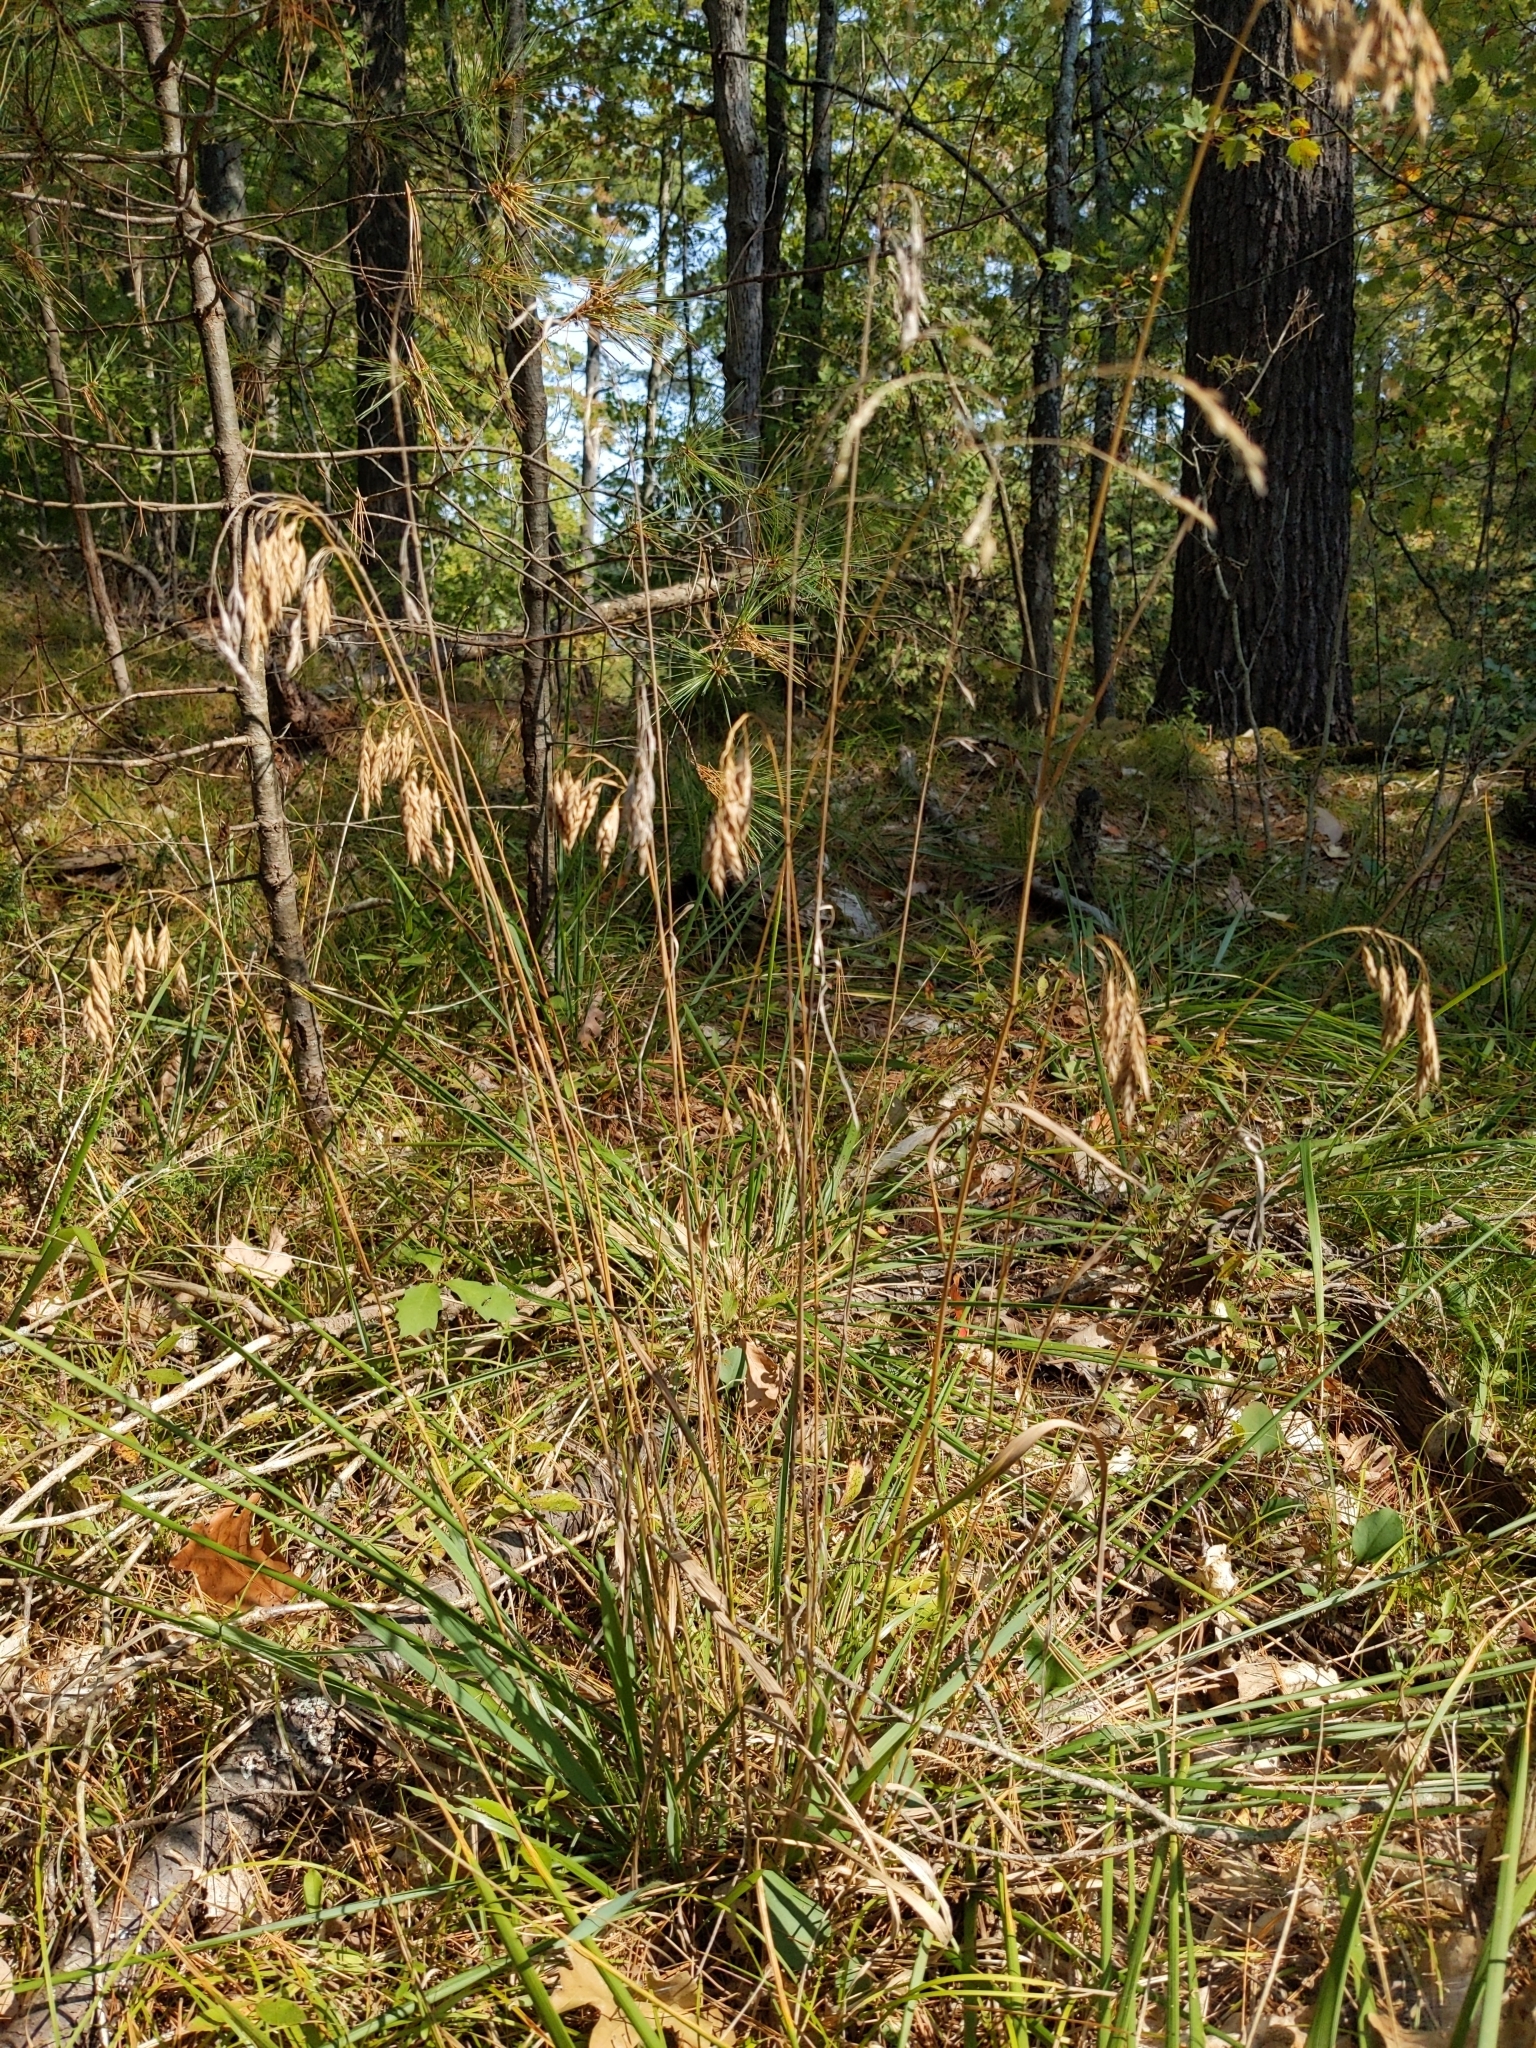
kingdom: Plantae
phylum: Tracheophyta
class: Liliopsida
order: Poales
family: Poaceae
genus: Bromus
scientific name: Bromus kalmii
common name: Kalm brome
